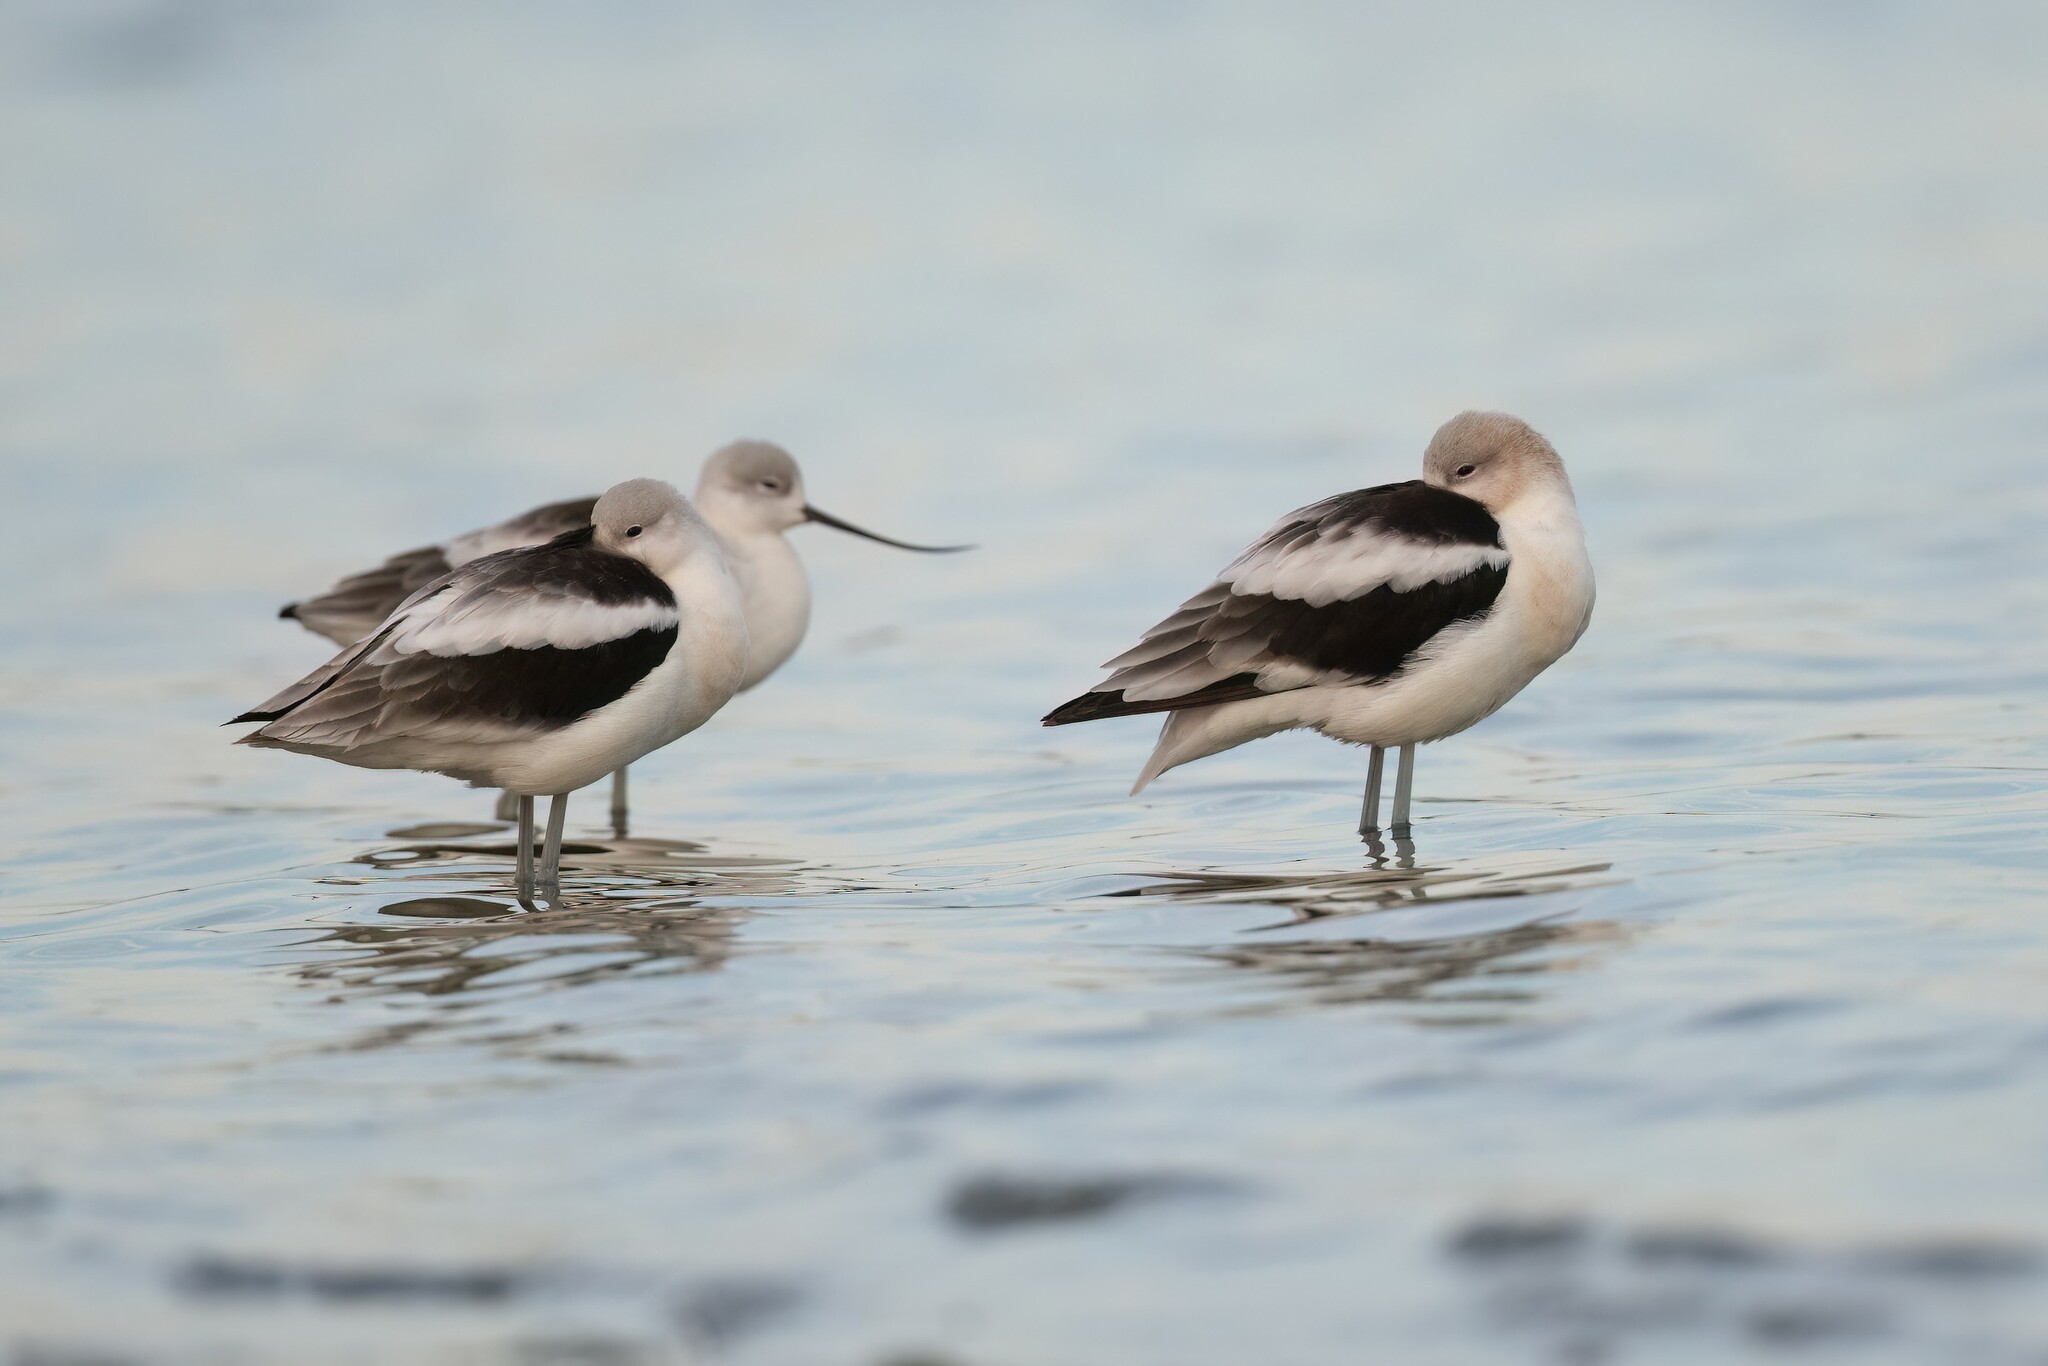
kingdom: Animalia
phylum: Chordata
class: Aves
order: Charadriiformes
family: Recurvirostridae
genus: Recurvirostra
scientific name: Recurvirostra americana
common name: American avocet
